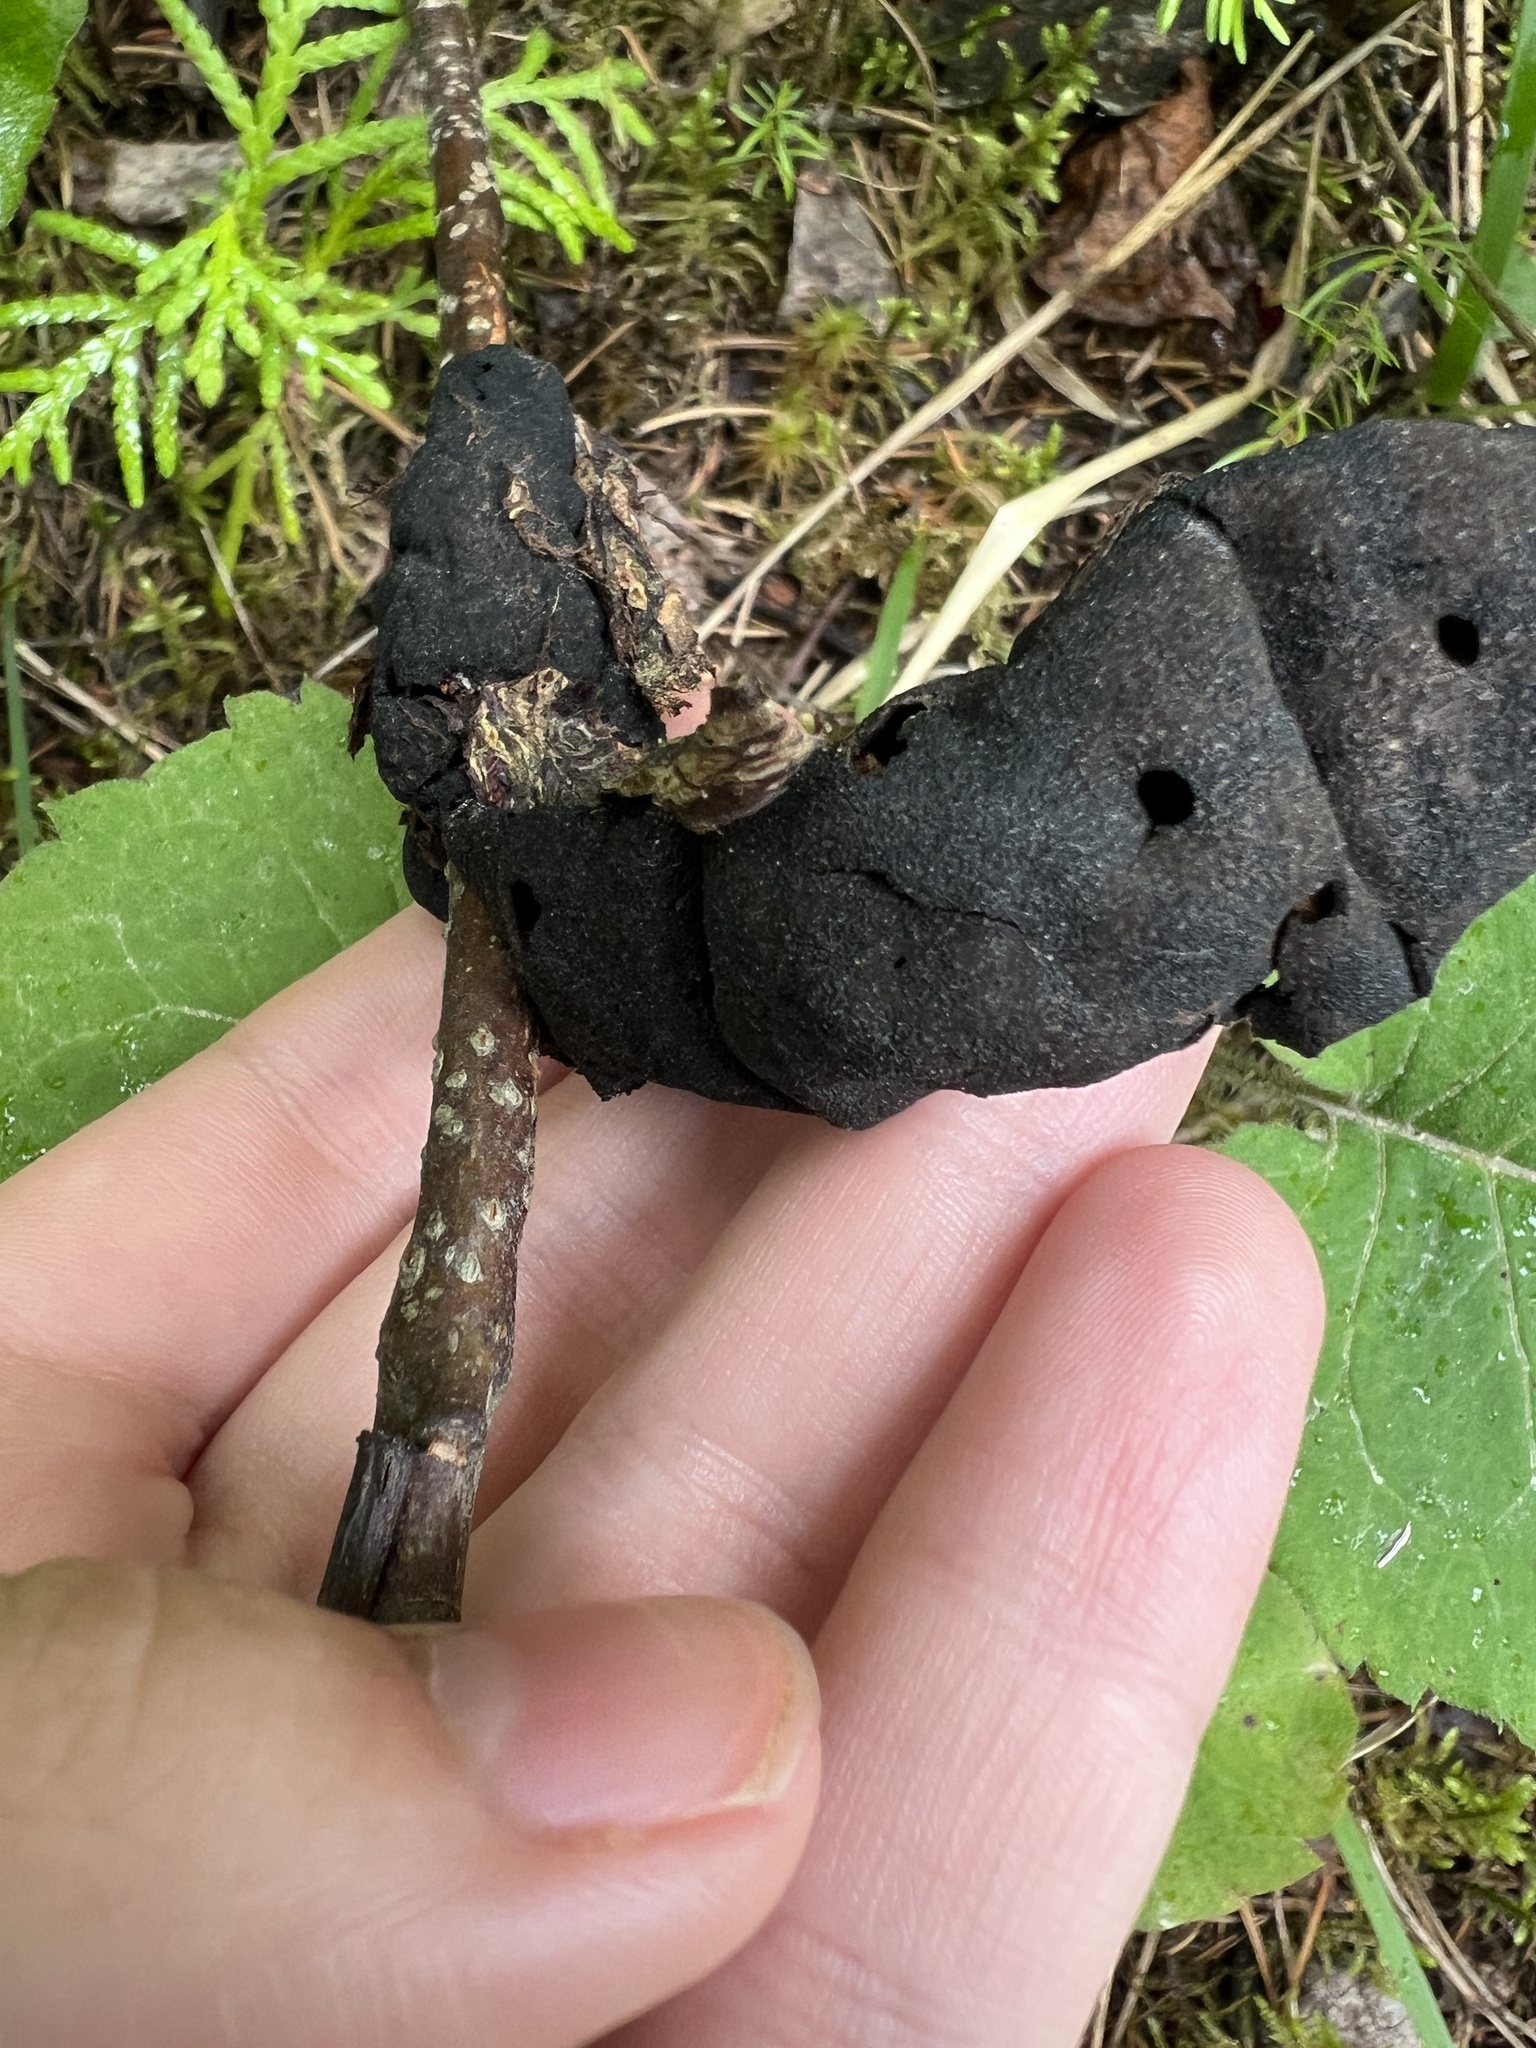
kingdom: Fungi
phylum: Ascomycota
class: Dothideomycetes
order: Venturiales
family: Venturiaceae
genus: Apiosporina
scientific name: Apiosporina morbosa
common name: Black knot
